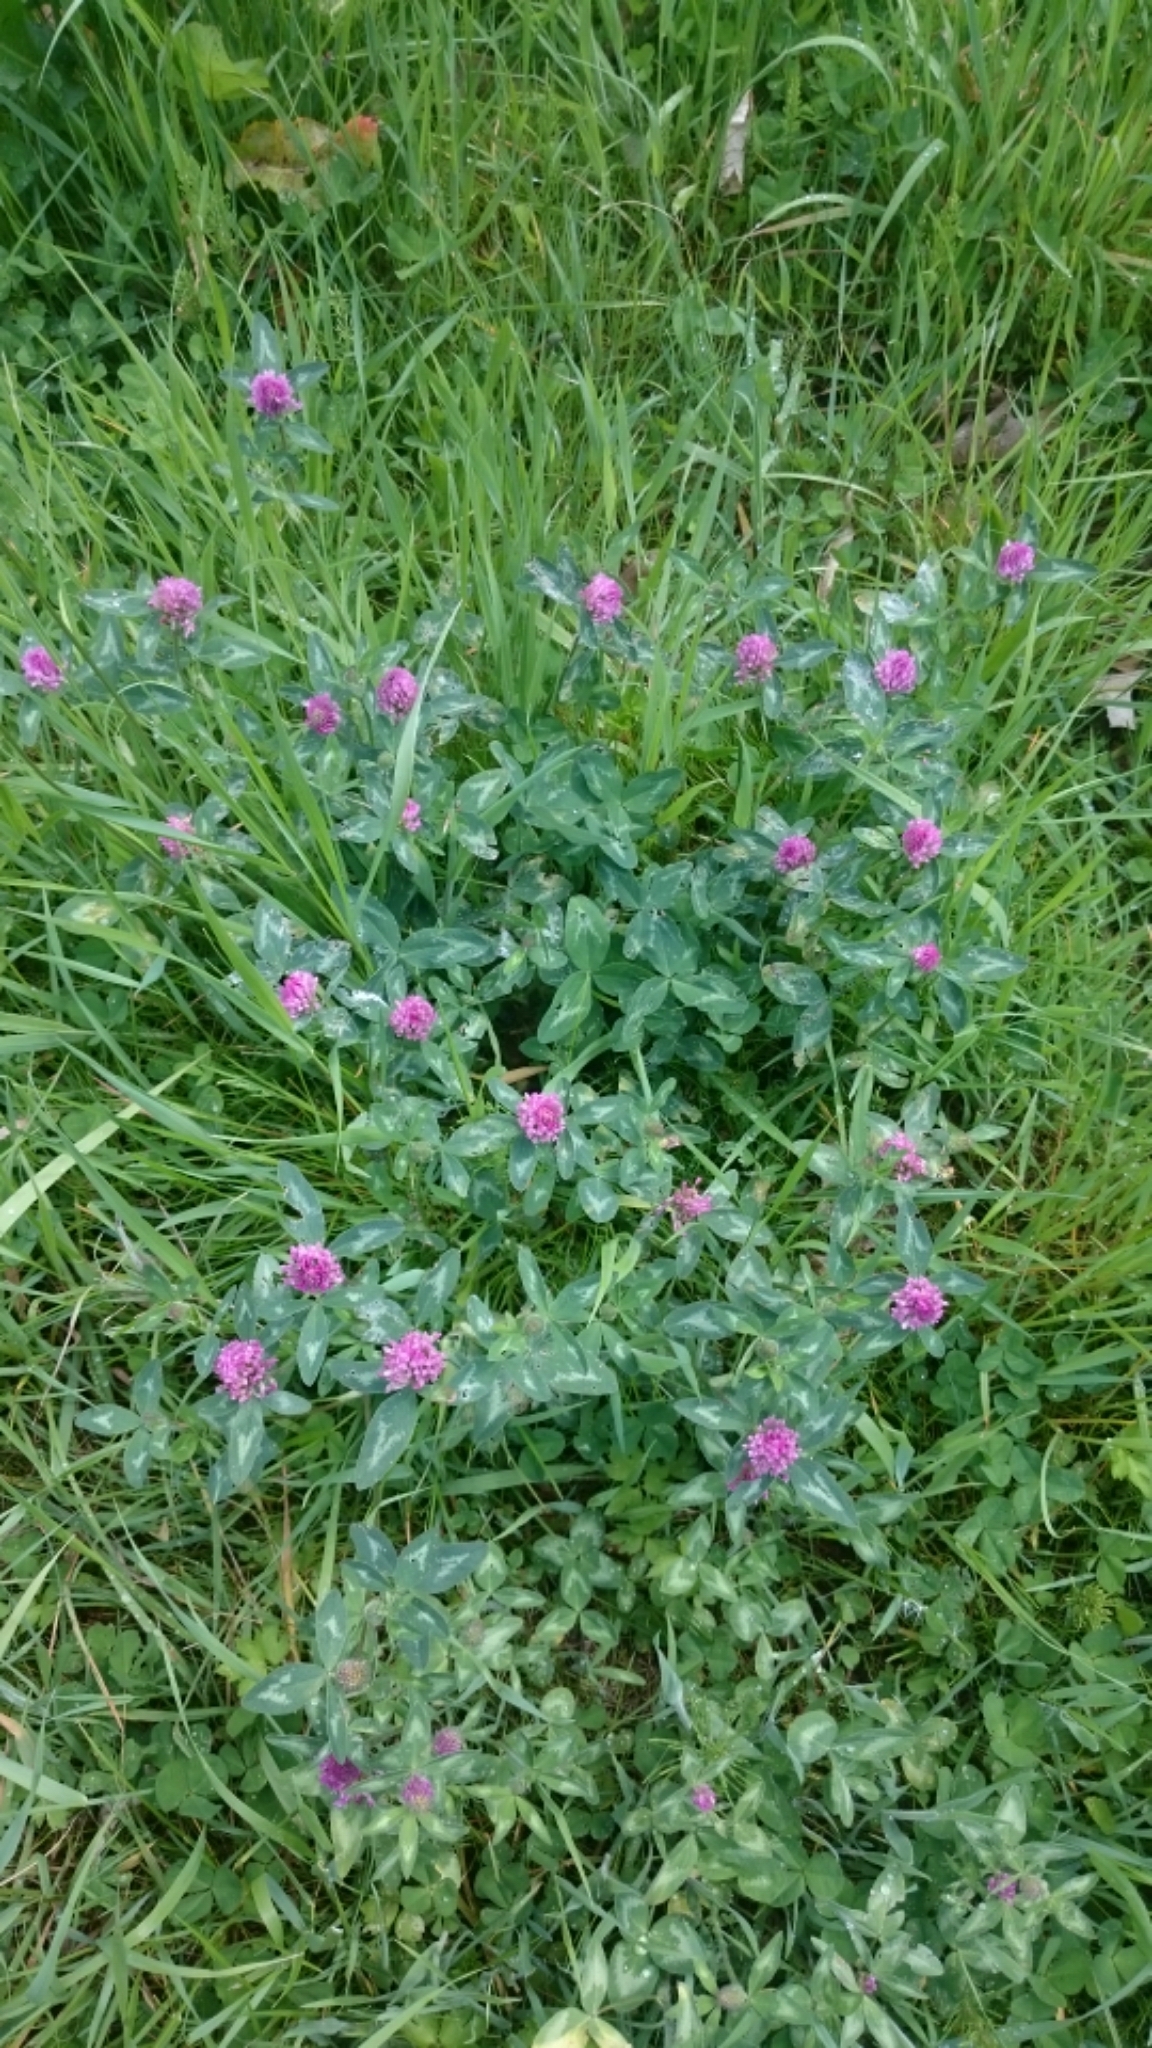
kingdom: Plantae
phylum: Tracheophyta
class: Magnoliopsida
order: Fabales
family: Fabaceae
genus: Trifolium
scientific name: Trifolium pratense
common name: Red clover
